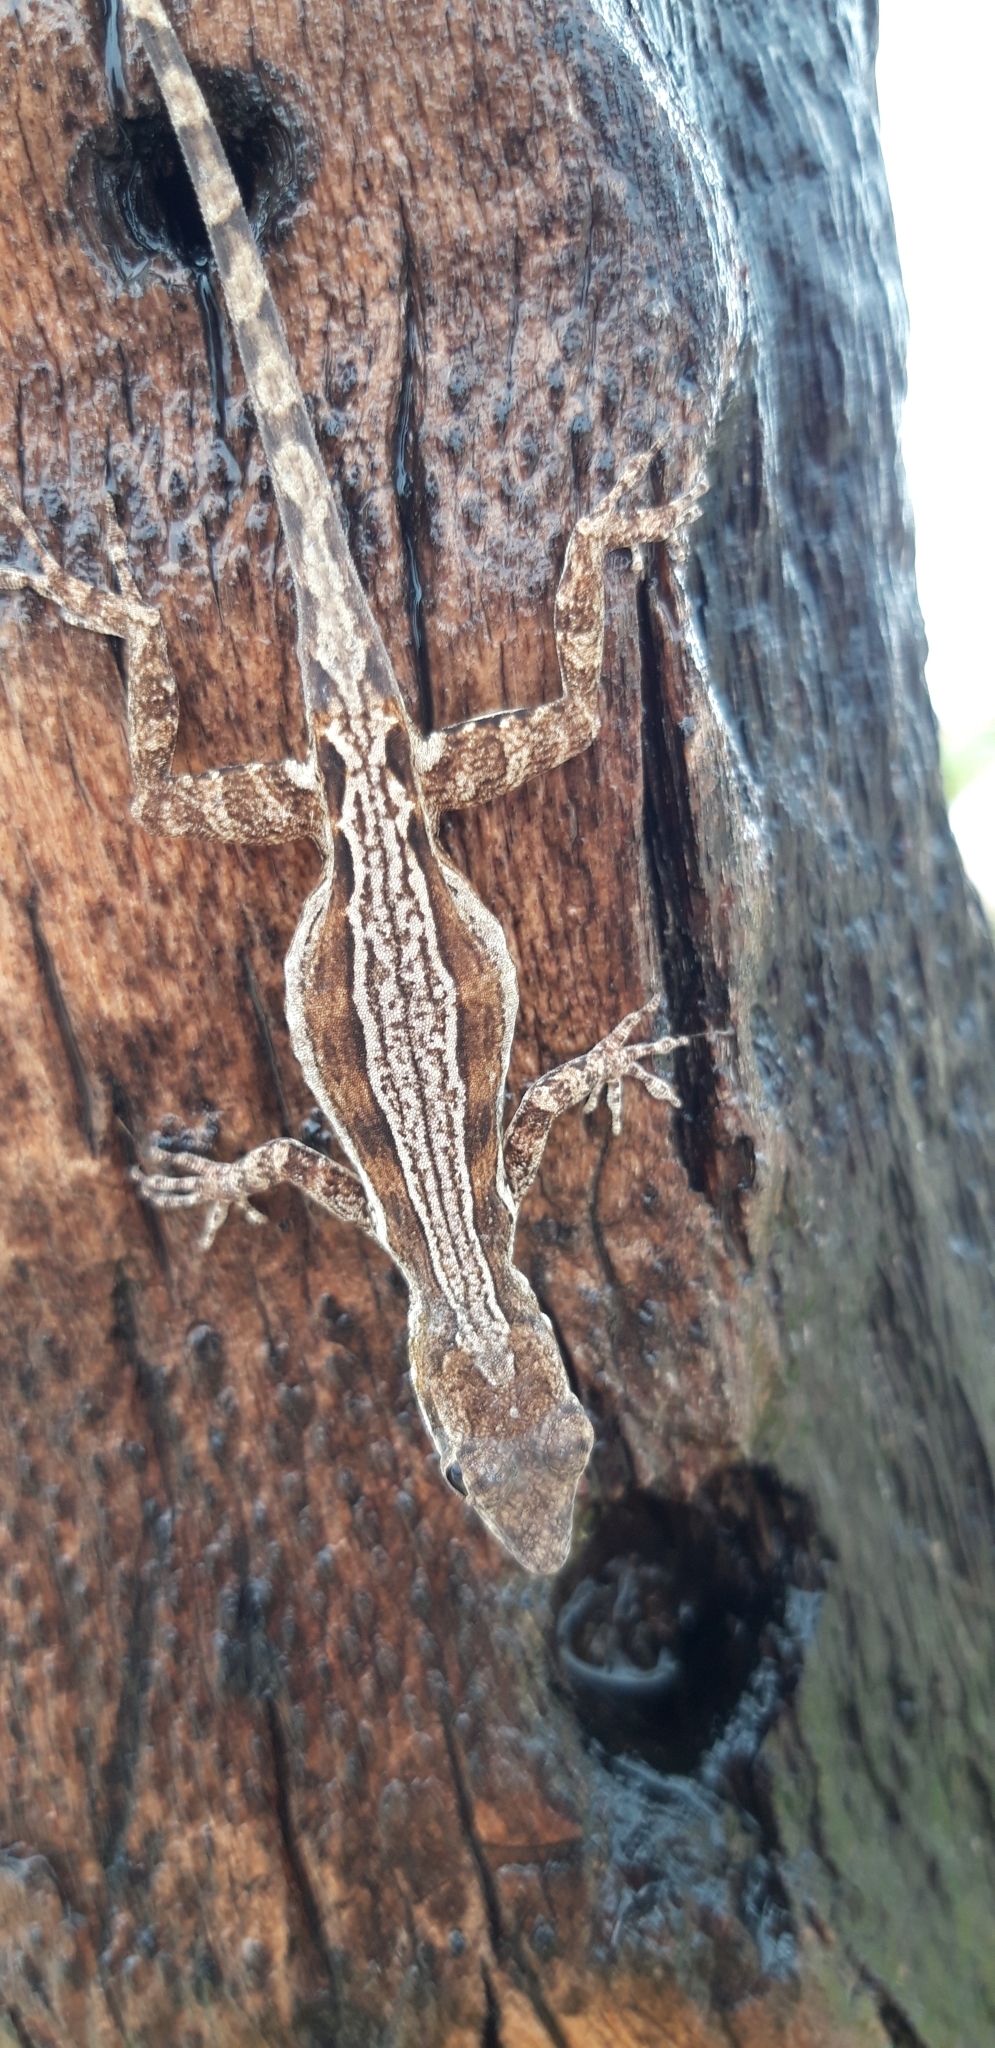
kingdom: Animalia
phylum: Chordata
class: Squamata
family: Dactyloidae
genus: Anolis
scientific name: Anolis gingivinus
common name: Anguilla anole
